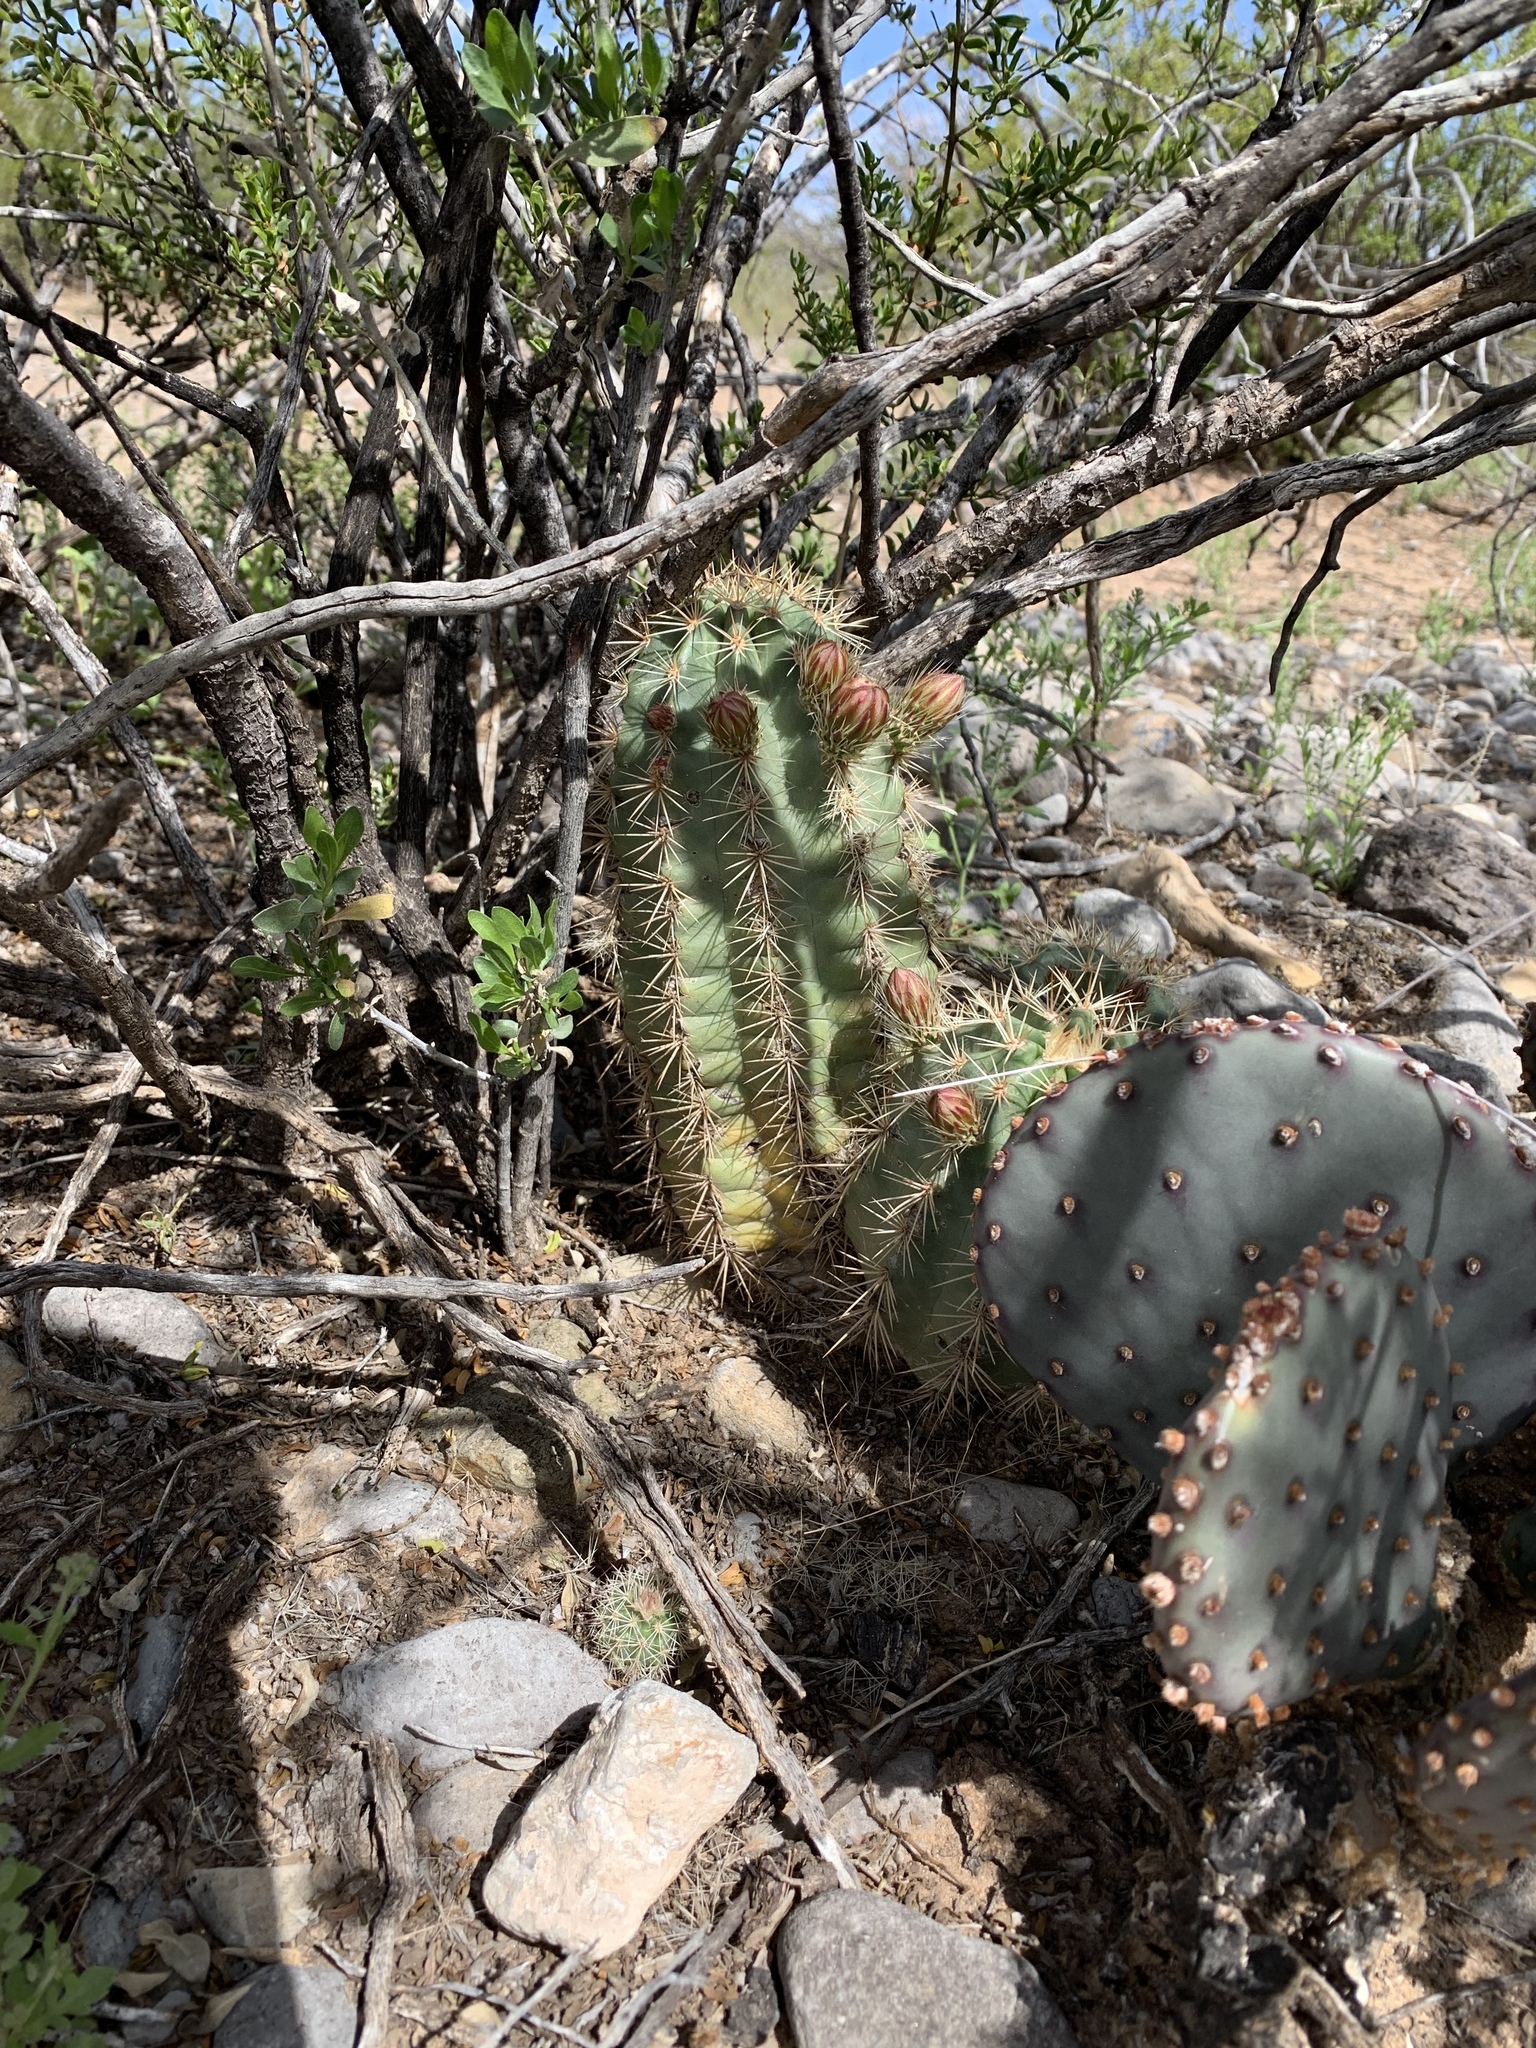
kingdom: Plantae
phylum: Tracheophyta
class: Magnoliopsida
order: Caryophyllales
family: Cactaceae
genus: Echinocereus
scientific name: Echinocereus coccineus
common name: Scarlet hedgehog cactus
